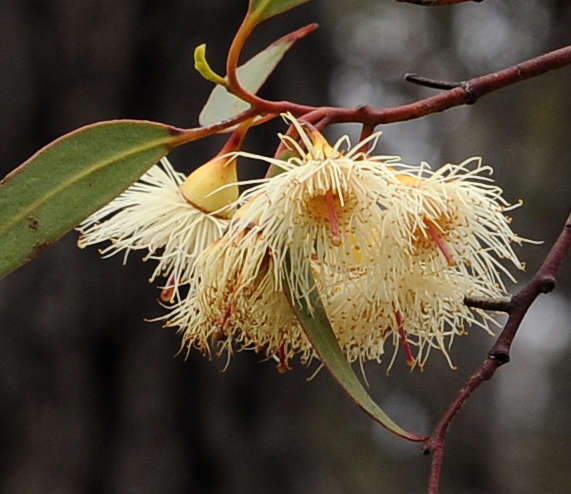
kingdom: Plantae
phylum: Tracheophyta
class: Magnoliopsida
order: Myrtales
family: Myrtaceae
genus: Eucalyptus
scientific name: Eucalyptus tricarpa
